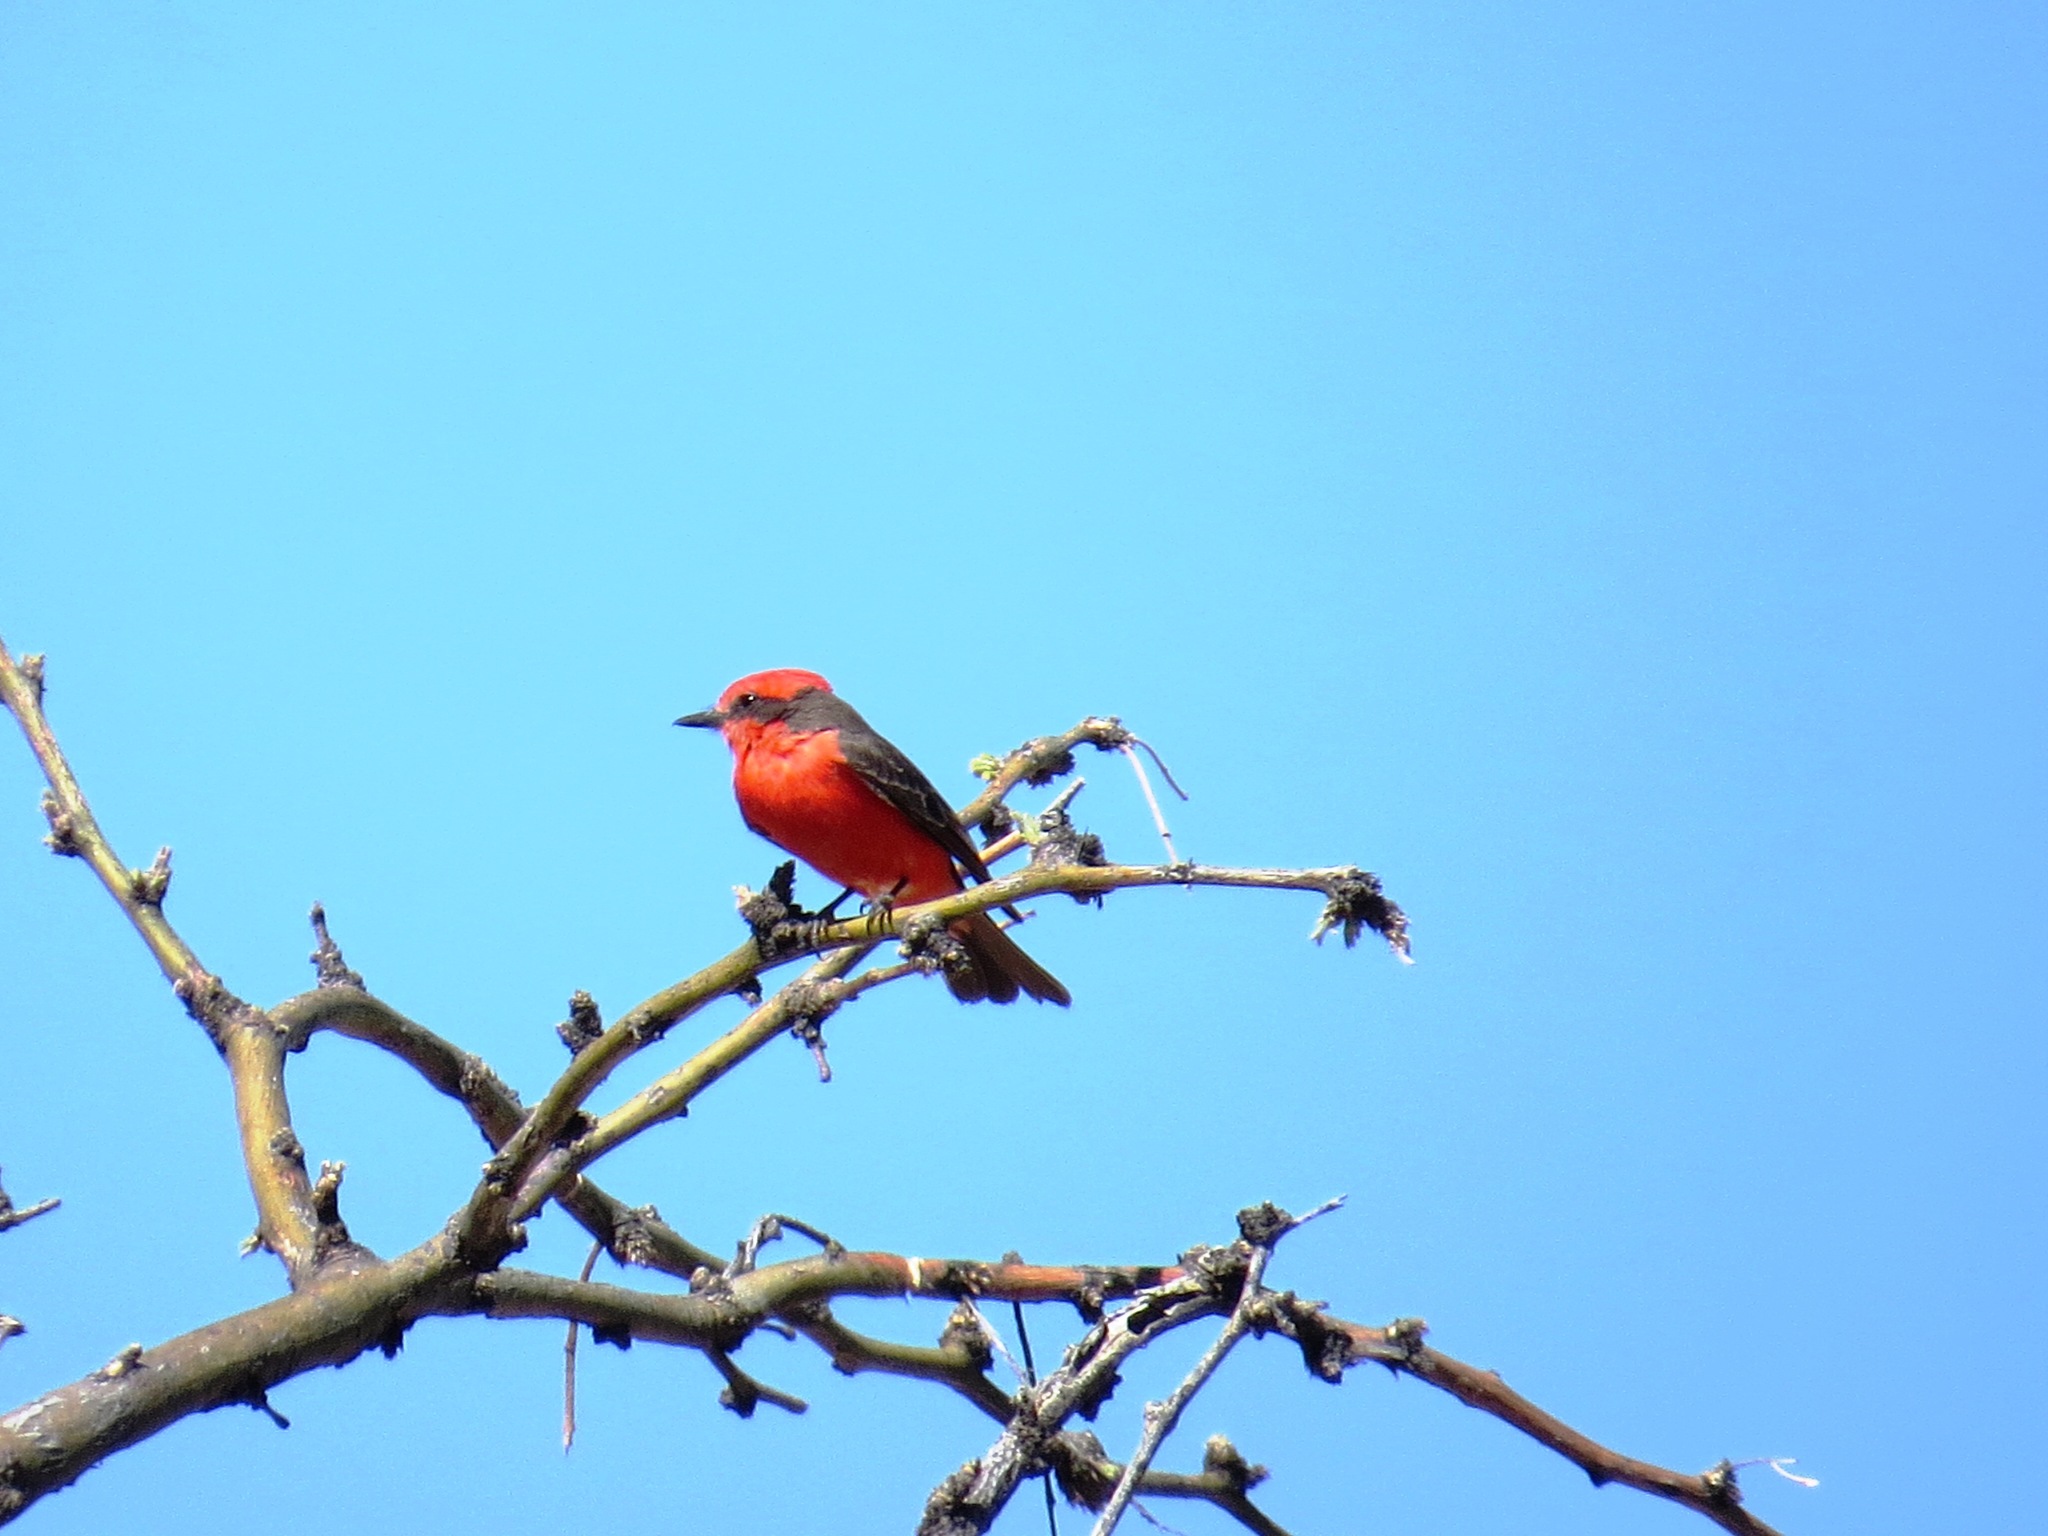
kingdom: Animalia
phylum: Chordata
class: Aves
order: Passeriformes
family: Tyrannidae
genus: Pyrocephalus
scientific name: Pyrocephalus rubinus
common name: Vermilion flycatcher
